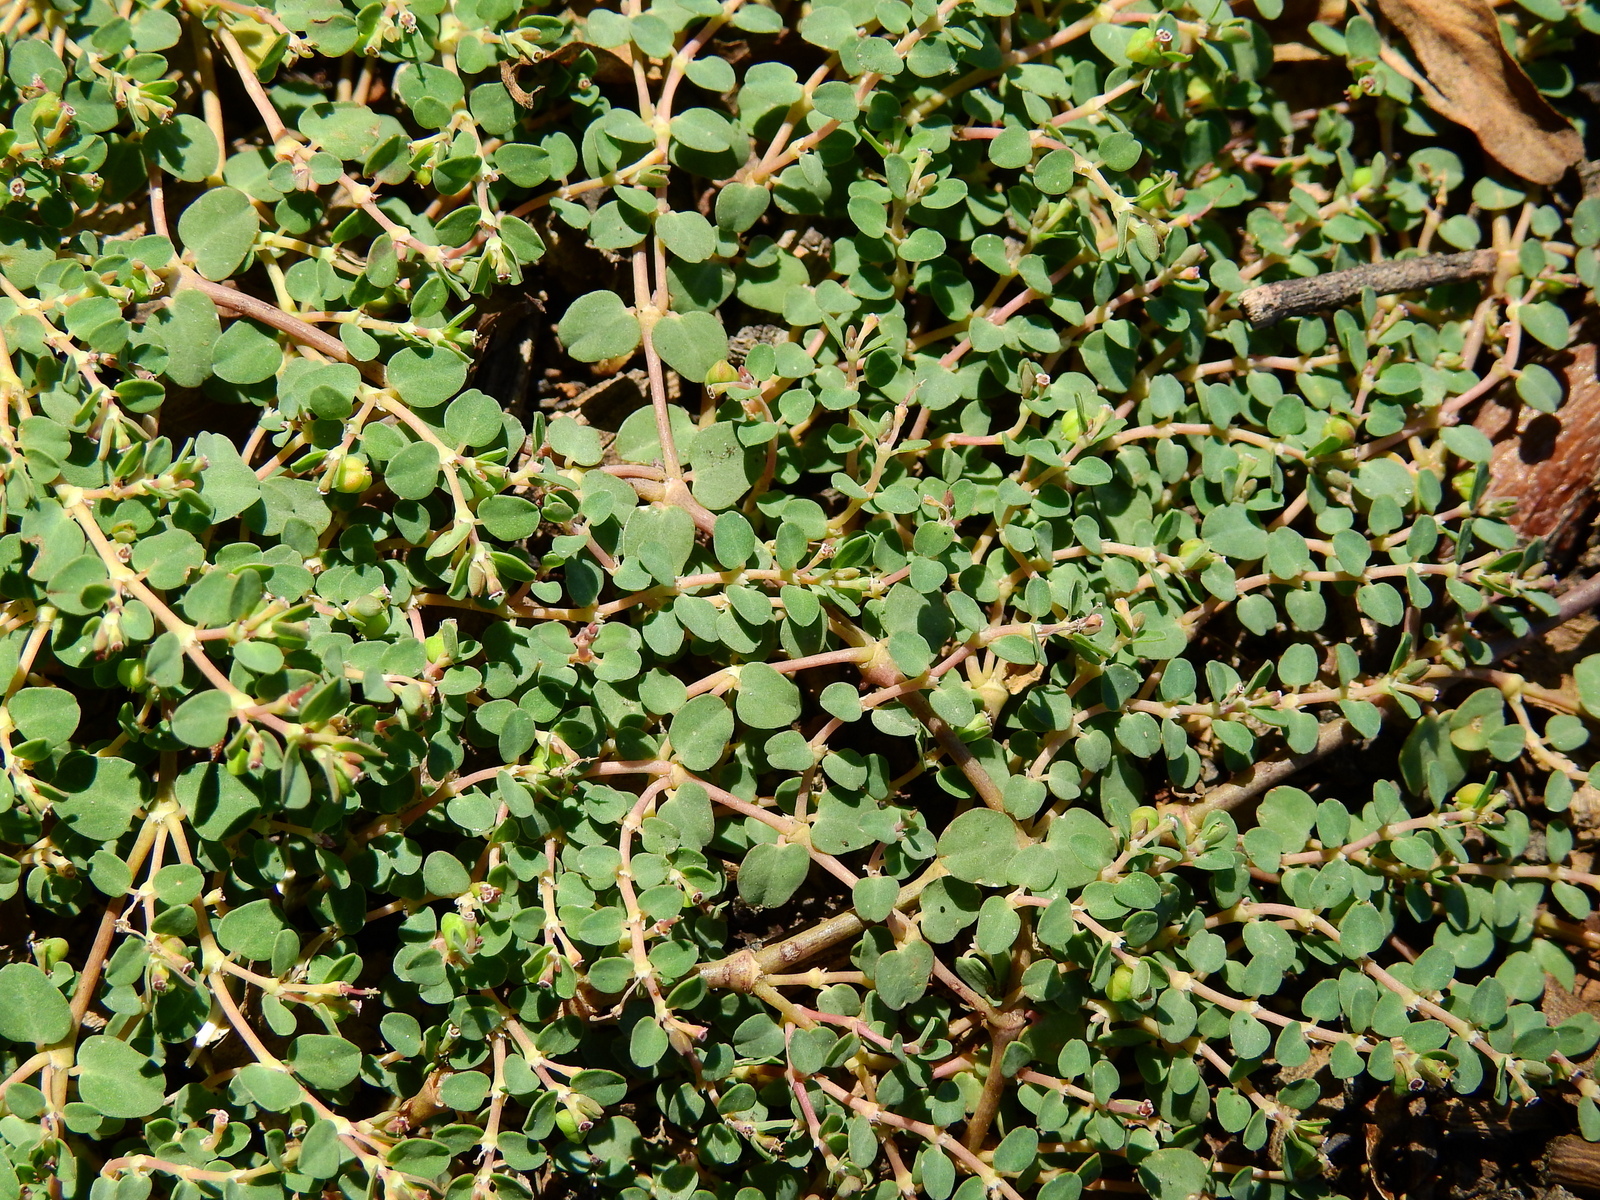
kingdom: Plantae
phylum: Tracheophyta
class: Magnoliopsida
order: Malpighiales
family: Euphorbiaceae
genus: Euphorbia
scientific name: Euphorbia serpens
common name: Matted sandmat
